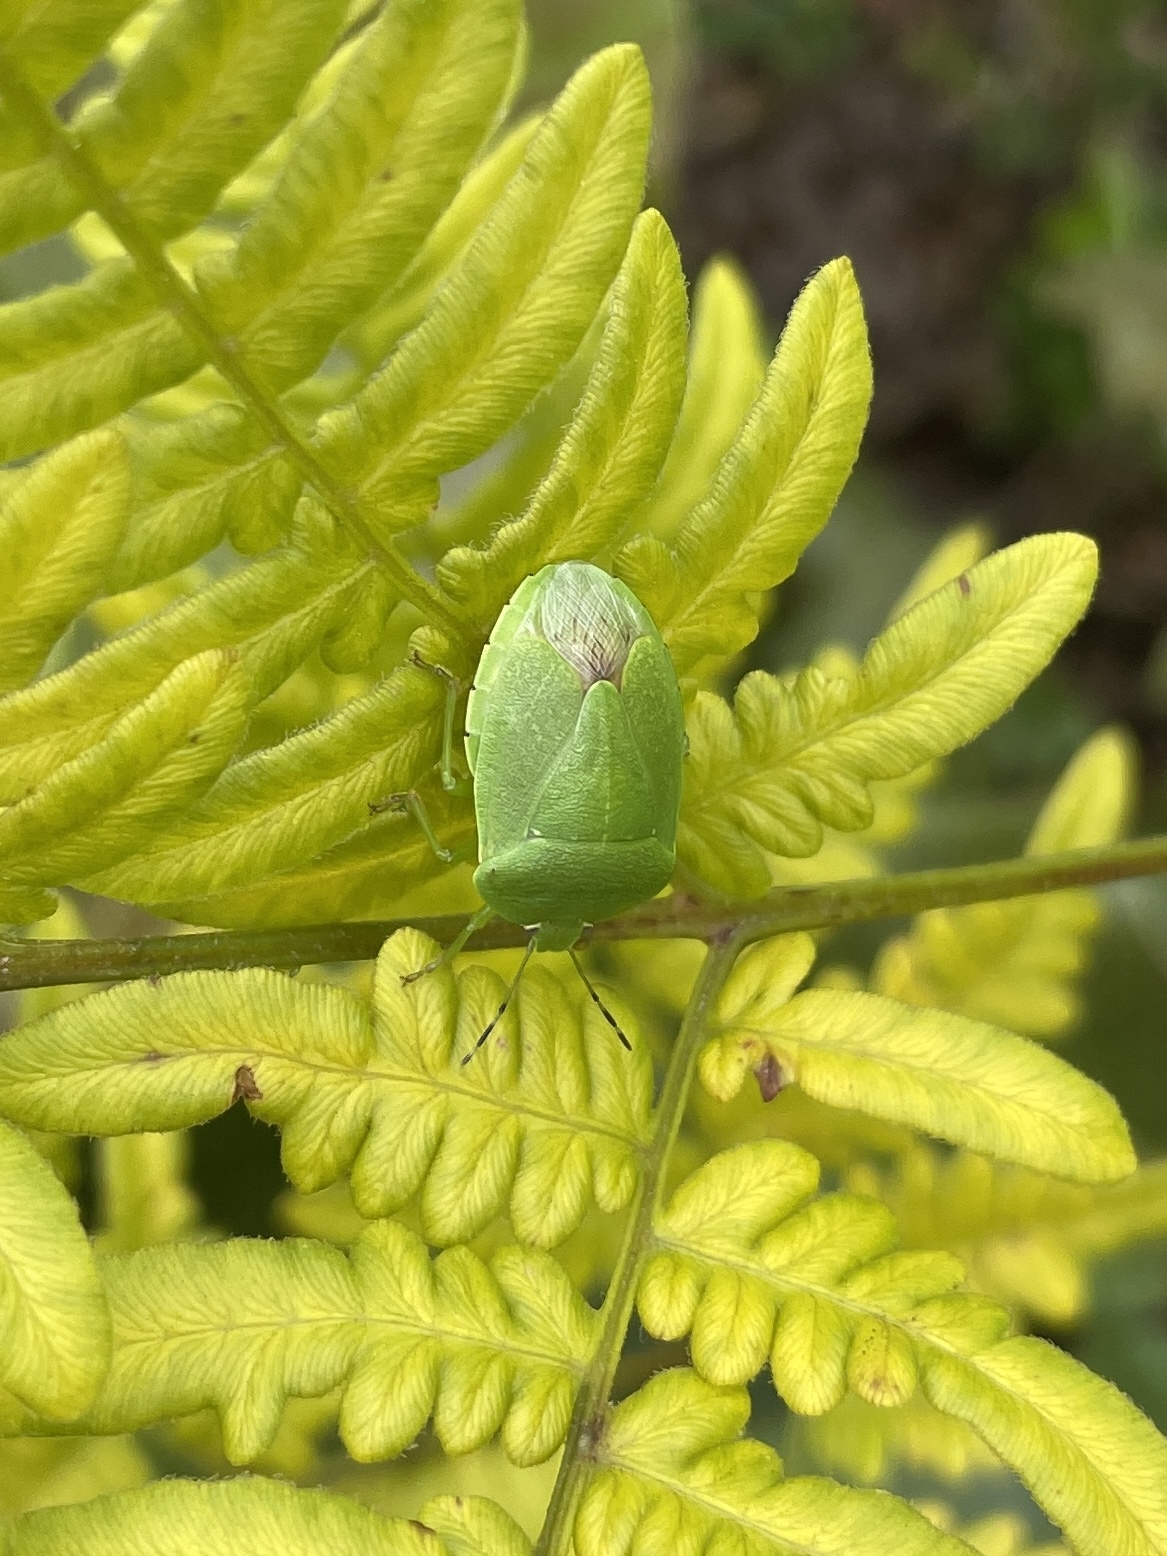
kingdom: Animalia
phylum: Arthropoda
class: Insecta
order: Hemiptera
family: Pentatomidae
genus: Chinavia
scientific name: Chinavia
